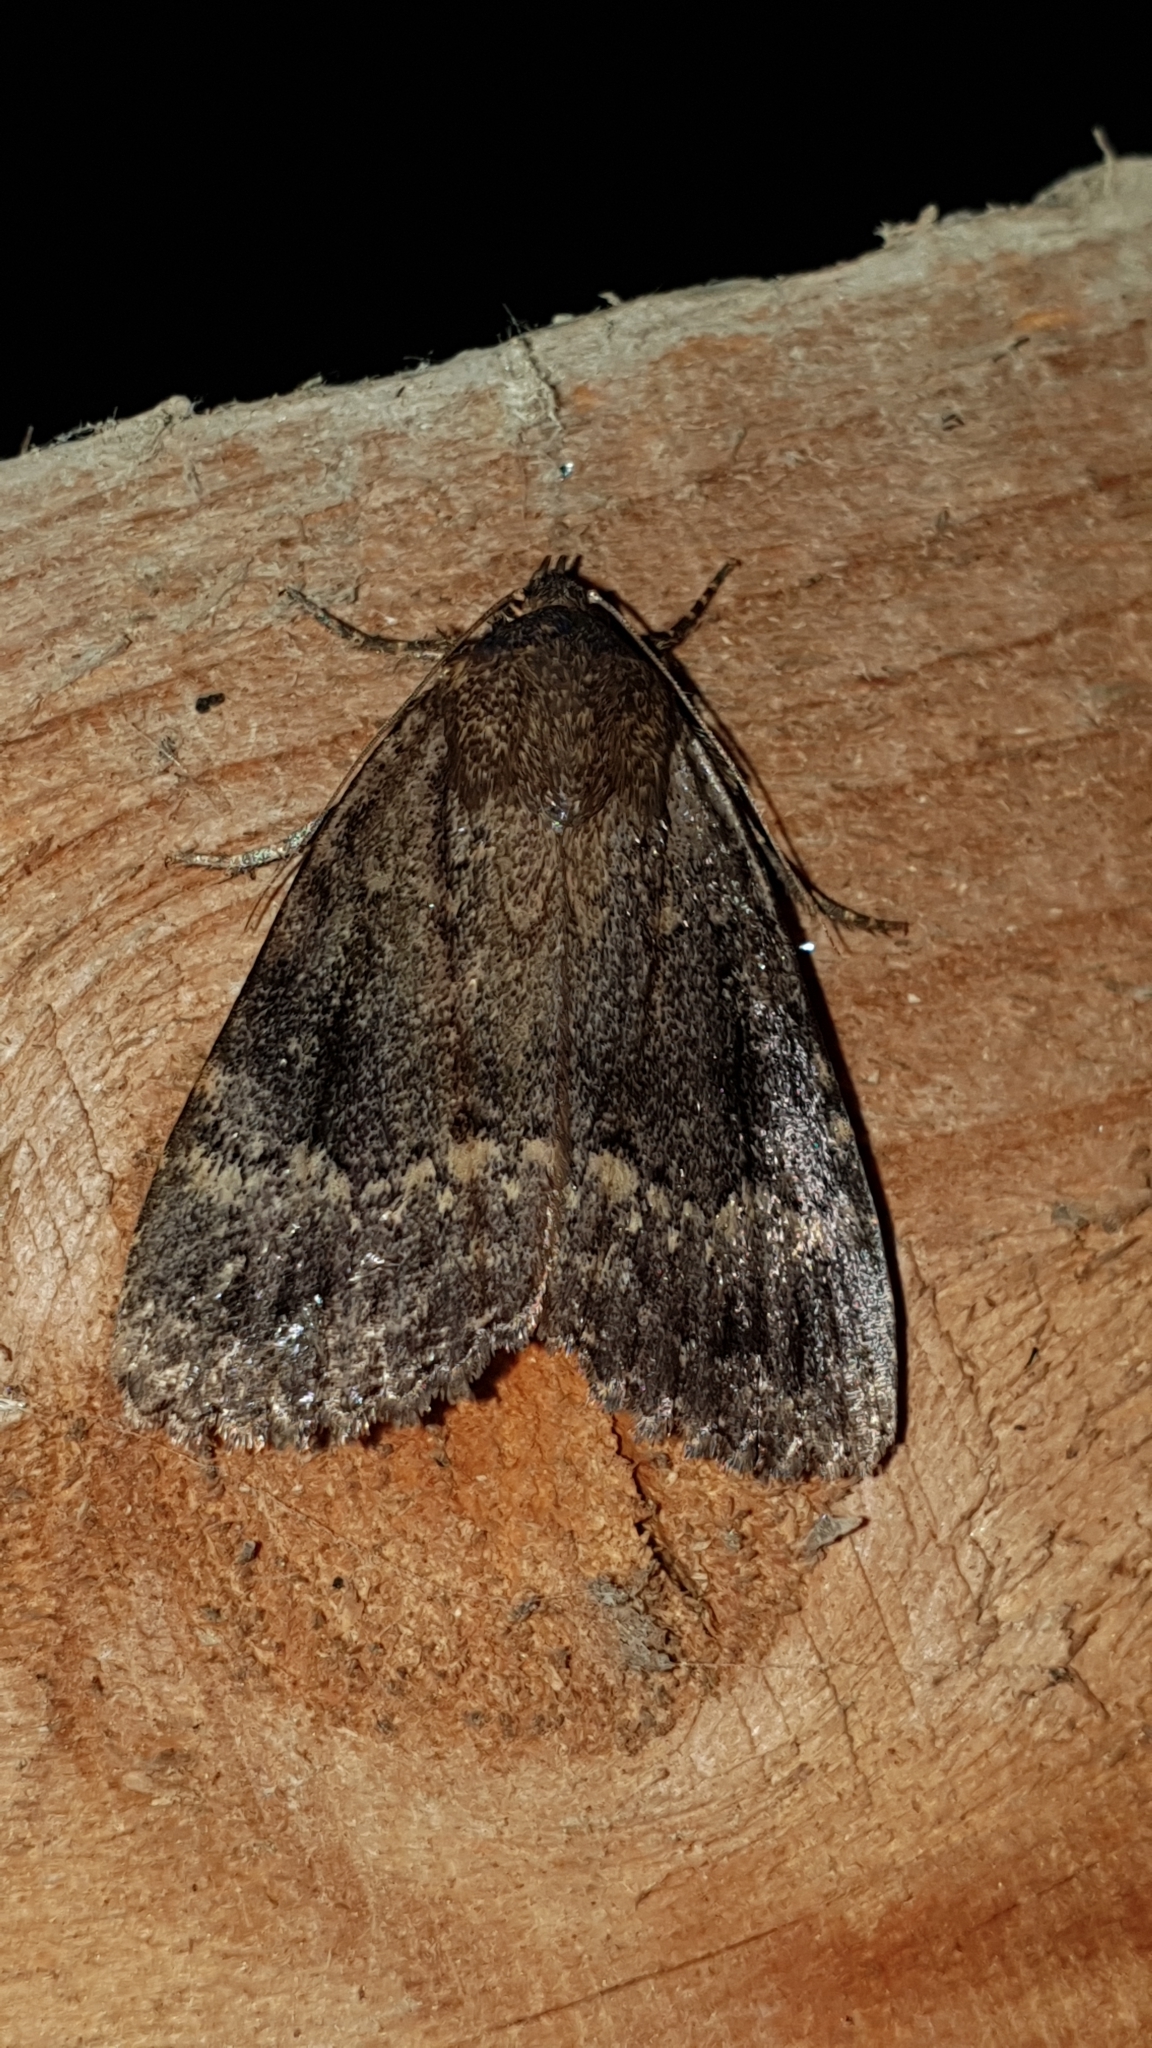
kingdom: Animalia
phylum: Arthropoda
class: Insecta
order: Lepidoptera
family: Noctuidae
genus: Amphipyra
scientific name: Amphipyra pyramidea
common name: Copper underwing
